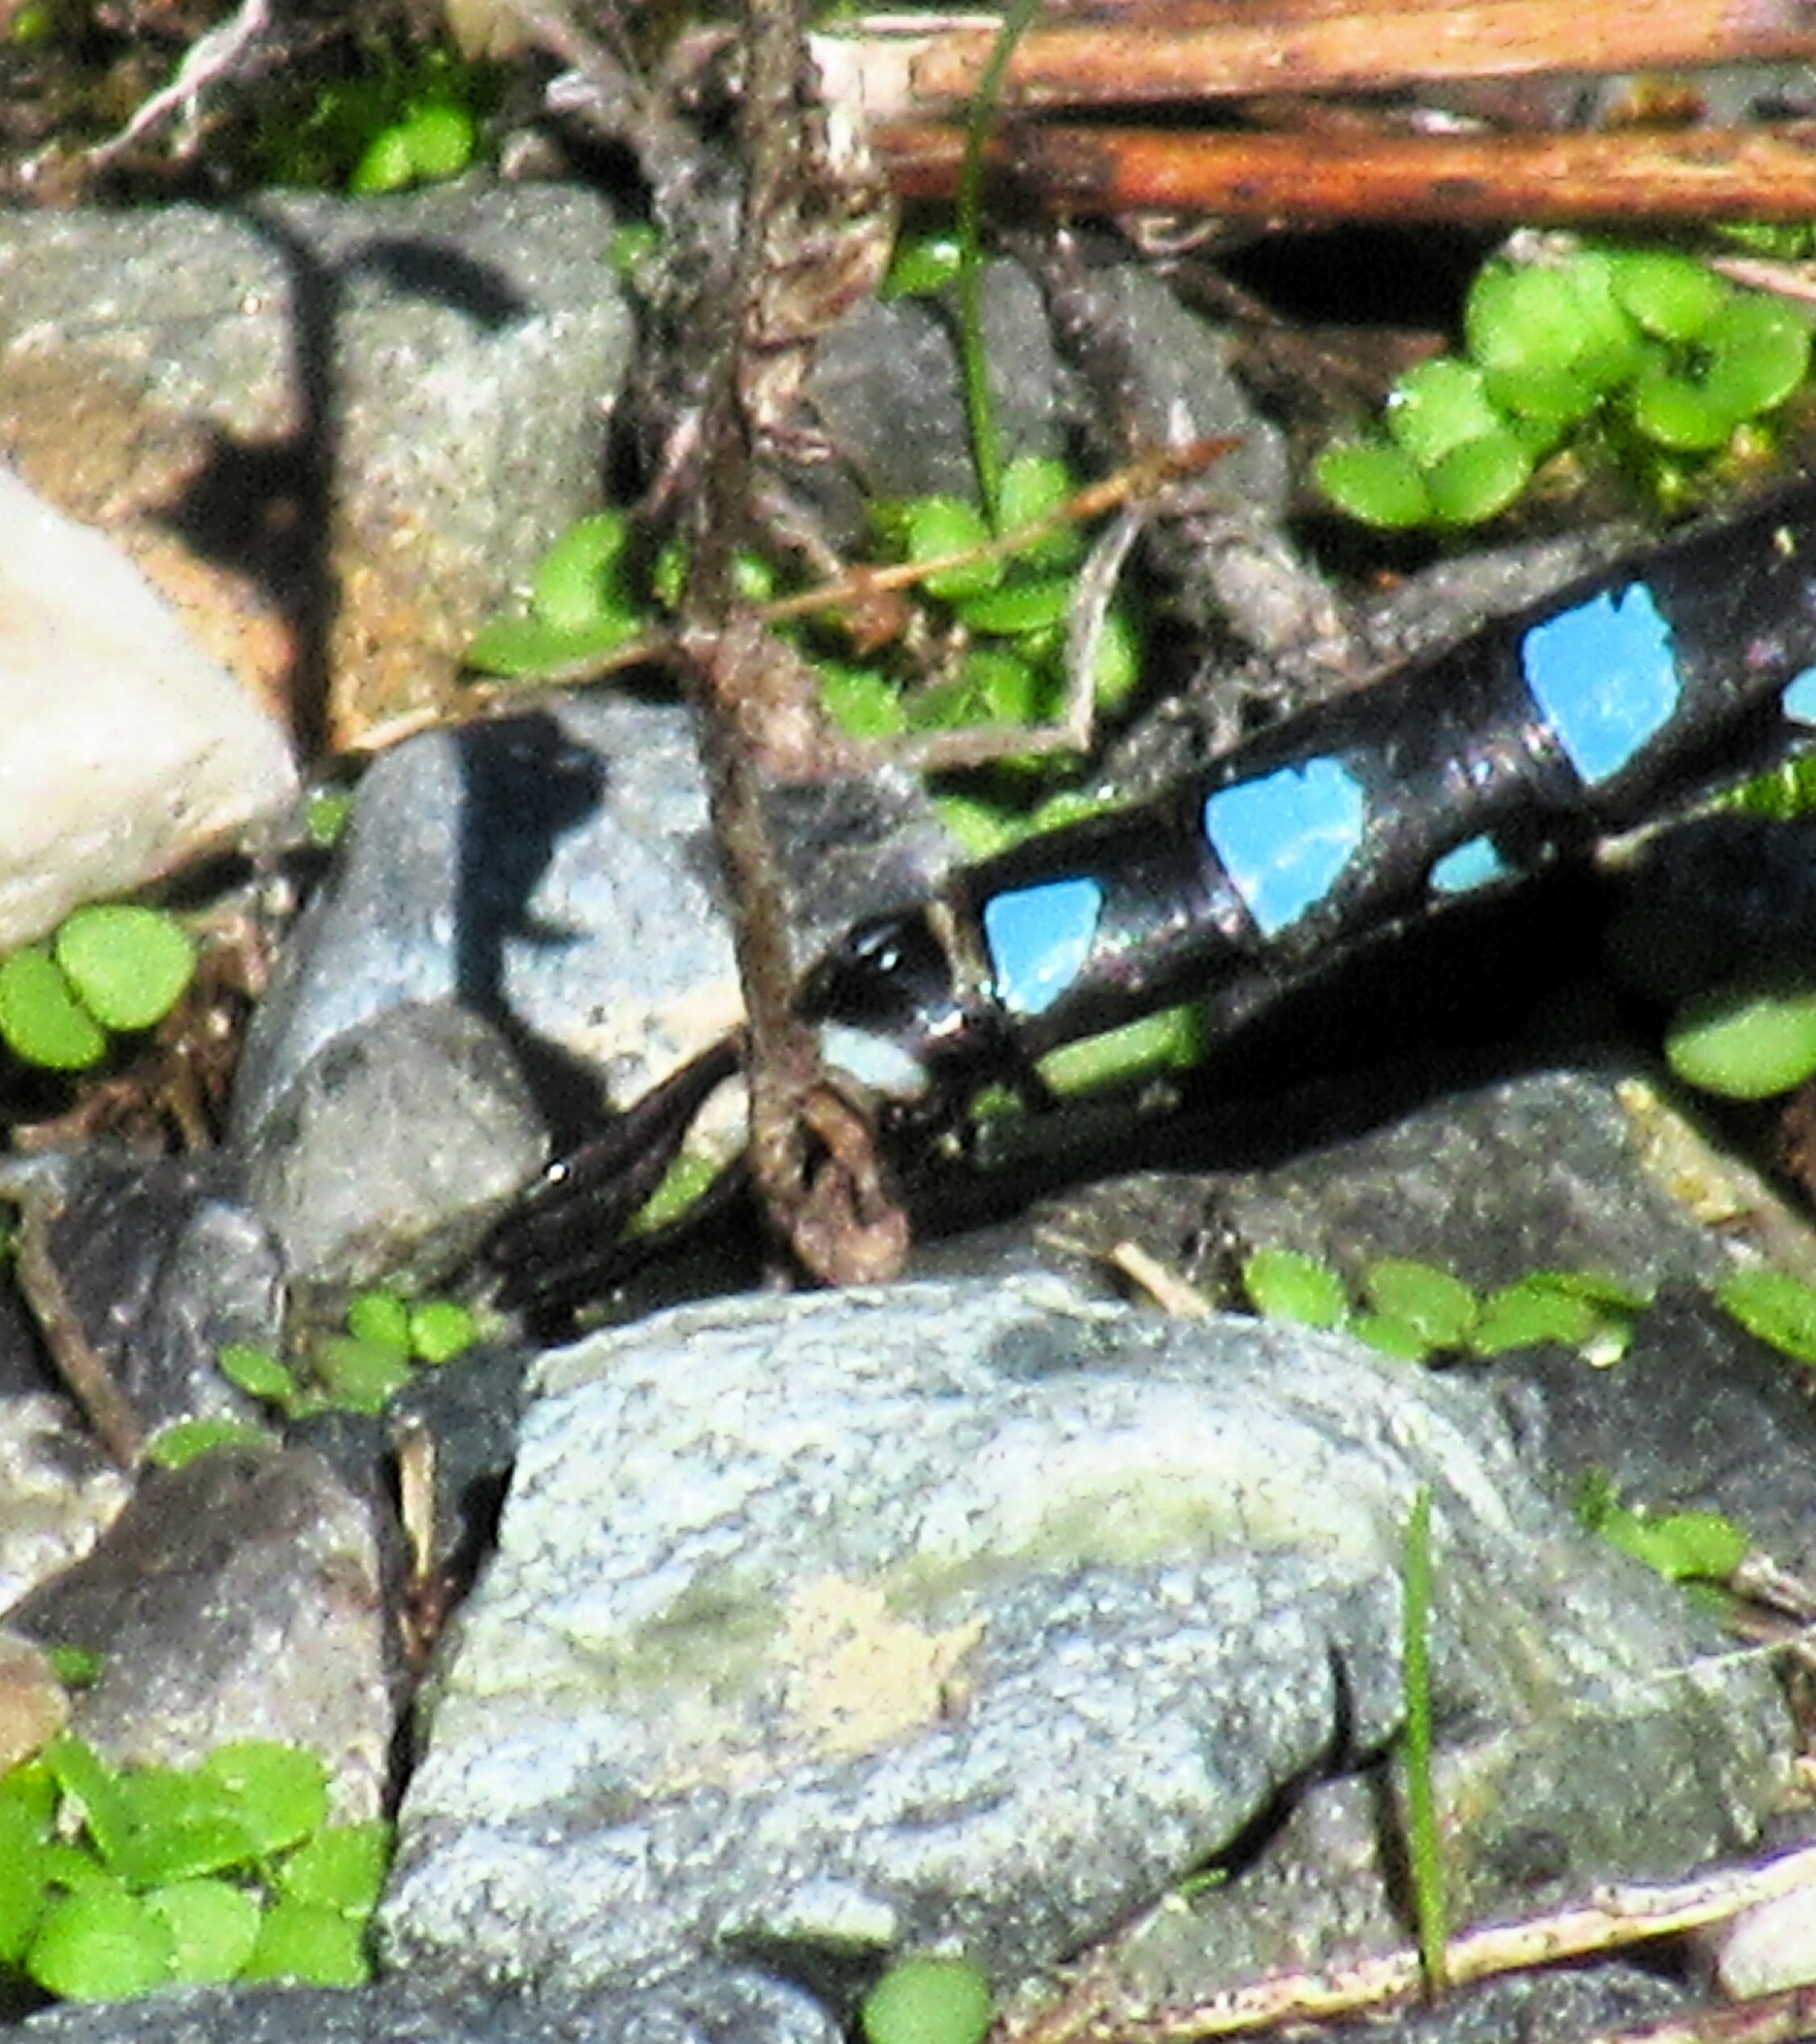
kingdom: Animalia
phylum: Arthropoda
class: Insecta
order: Odonata
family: Aeshnidae
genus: Aeshna
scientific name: Aeshna interrupta
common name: Variable darner
